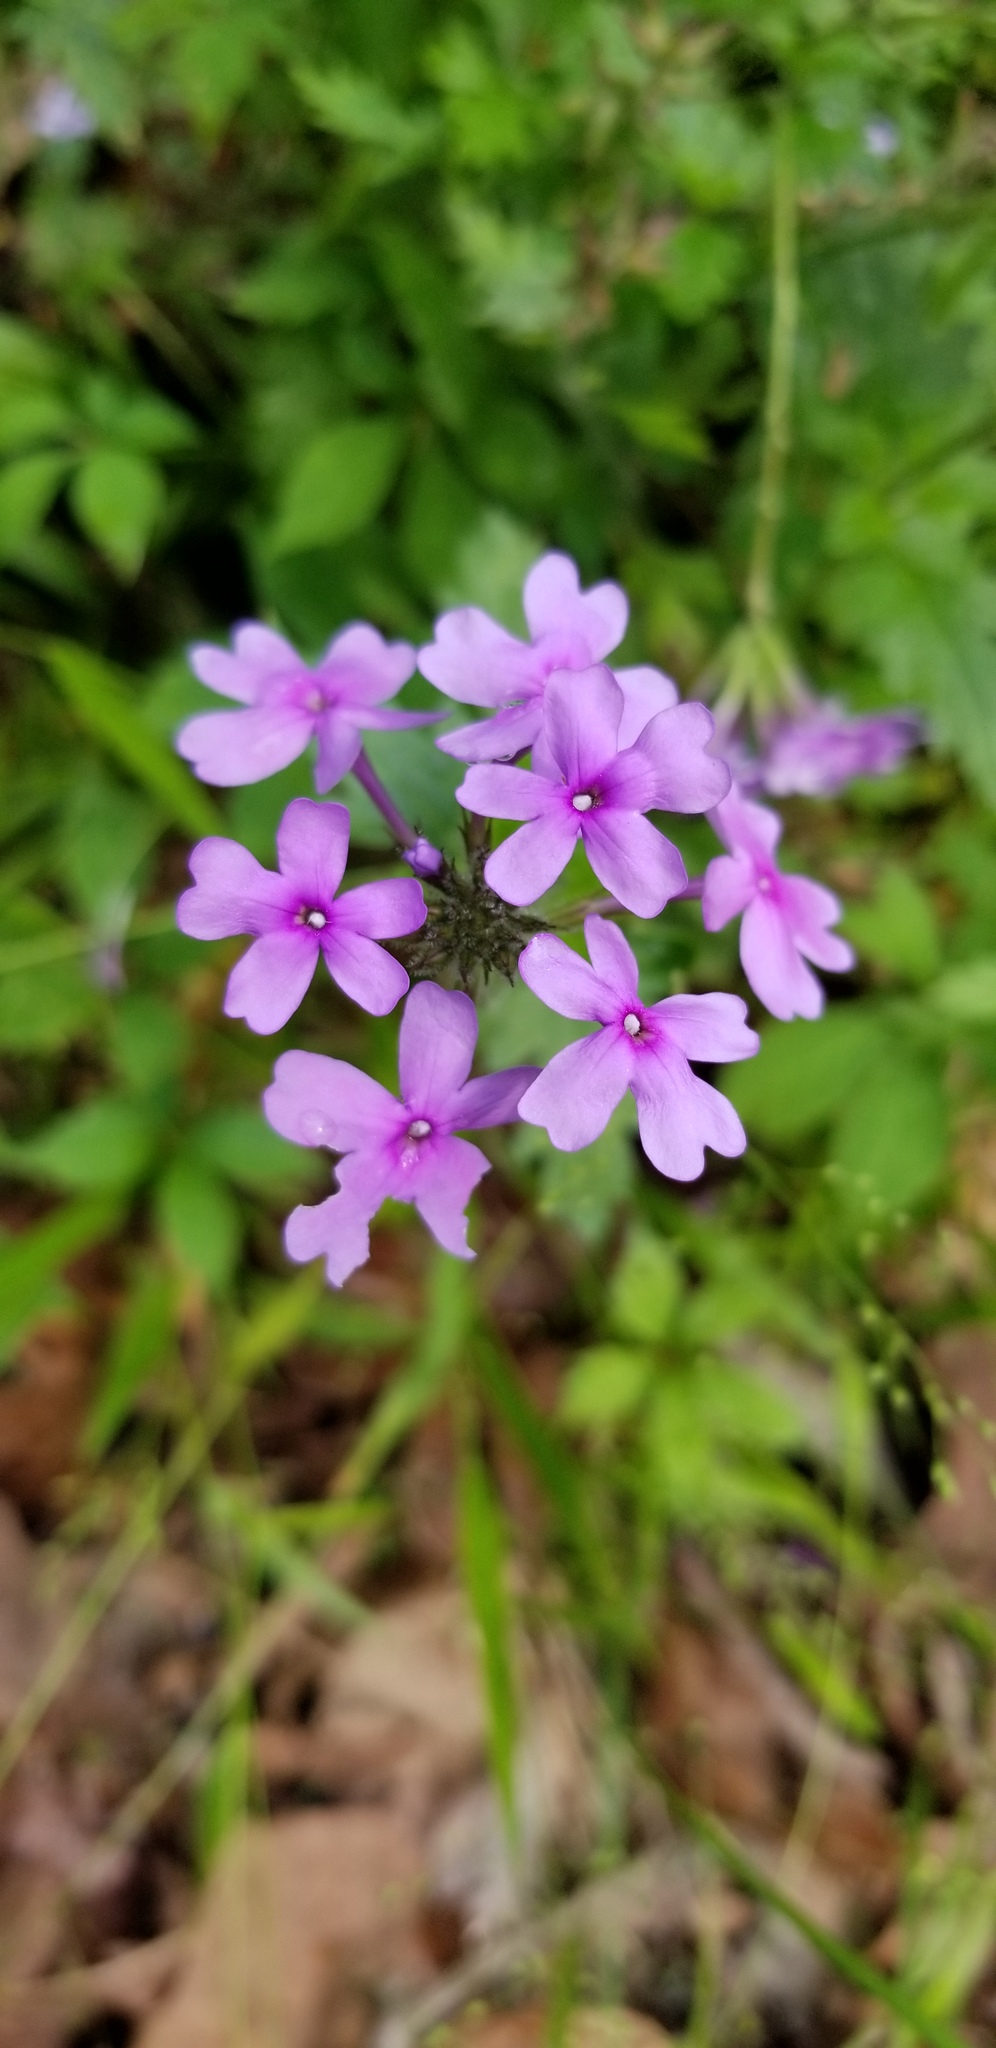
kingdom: Plantae
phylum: Tracheophyta
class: Magnoliopsida
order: Lamiales
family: Verbenaceae
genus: Verbena
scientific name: Verbena aristigera
